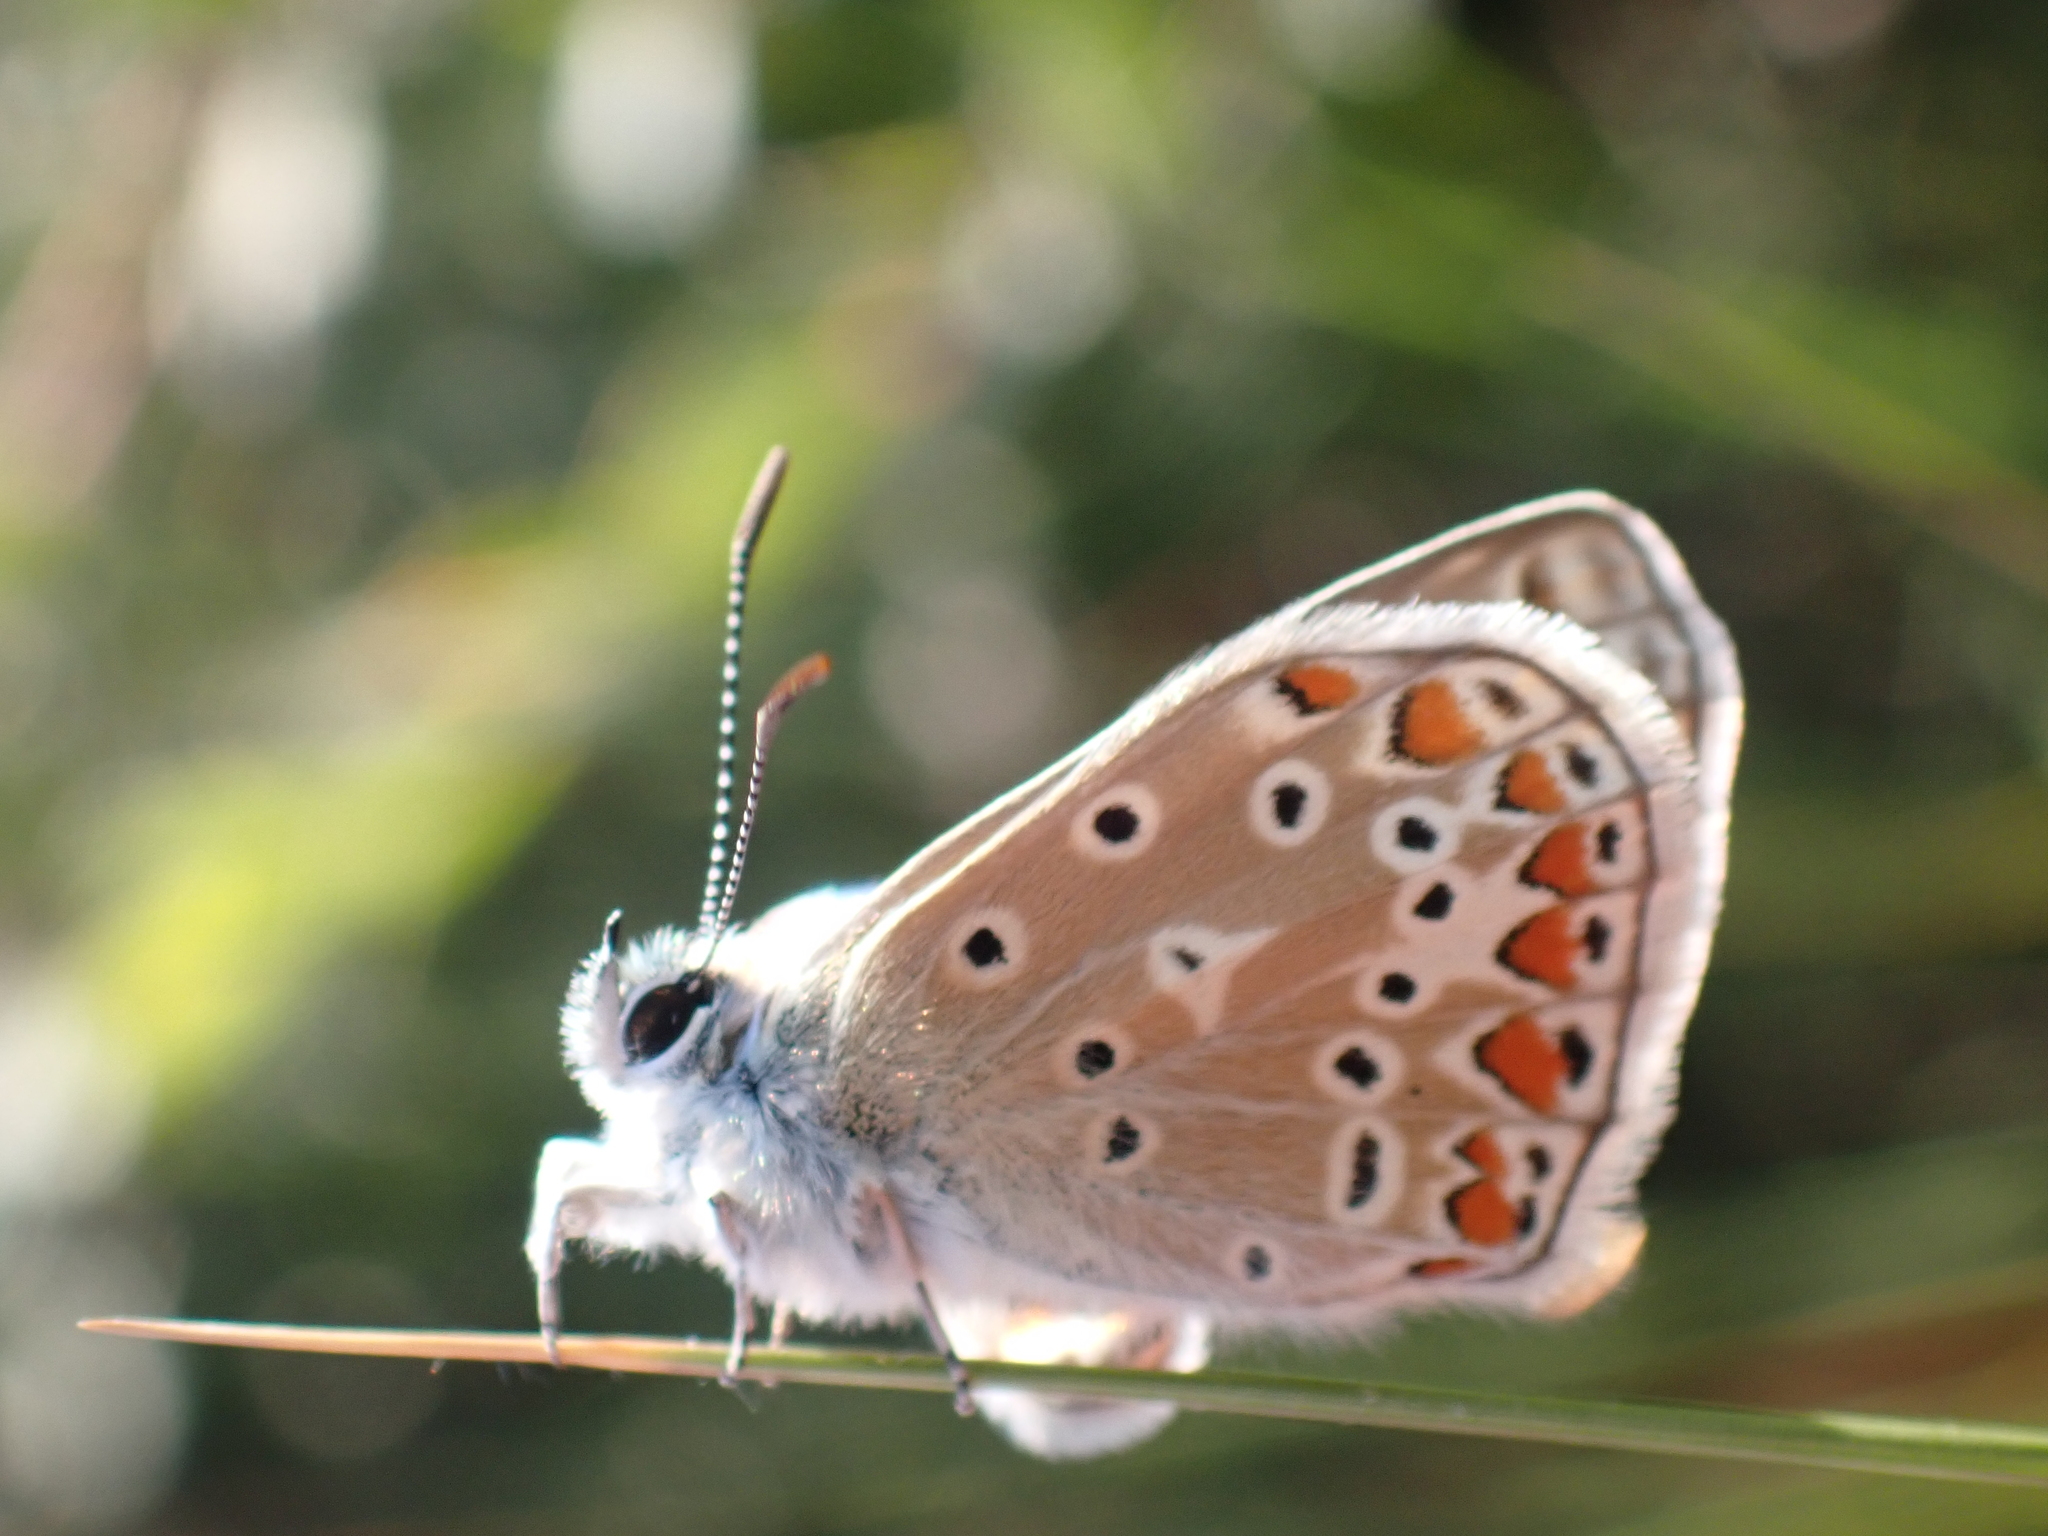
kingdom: Animalia
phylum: Arthropoda
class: Insecta
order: Lepidoptera
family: Lycaenidae
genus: Polyommatus
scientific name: Polyommatus icarus
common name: Common blue
